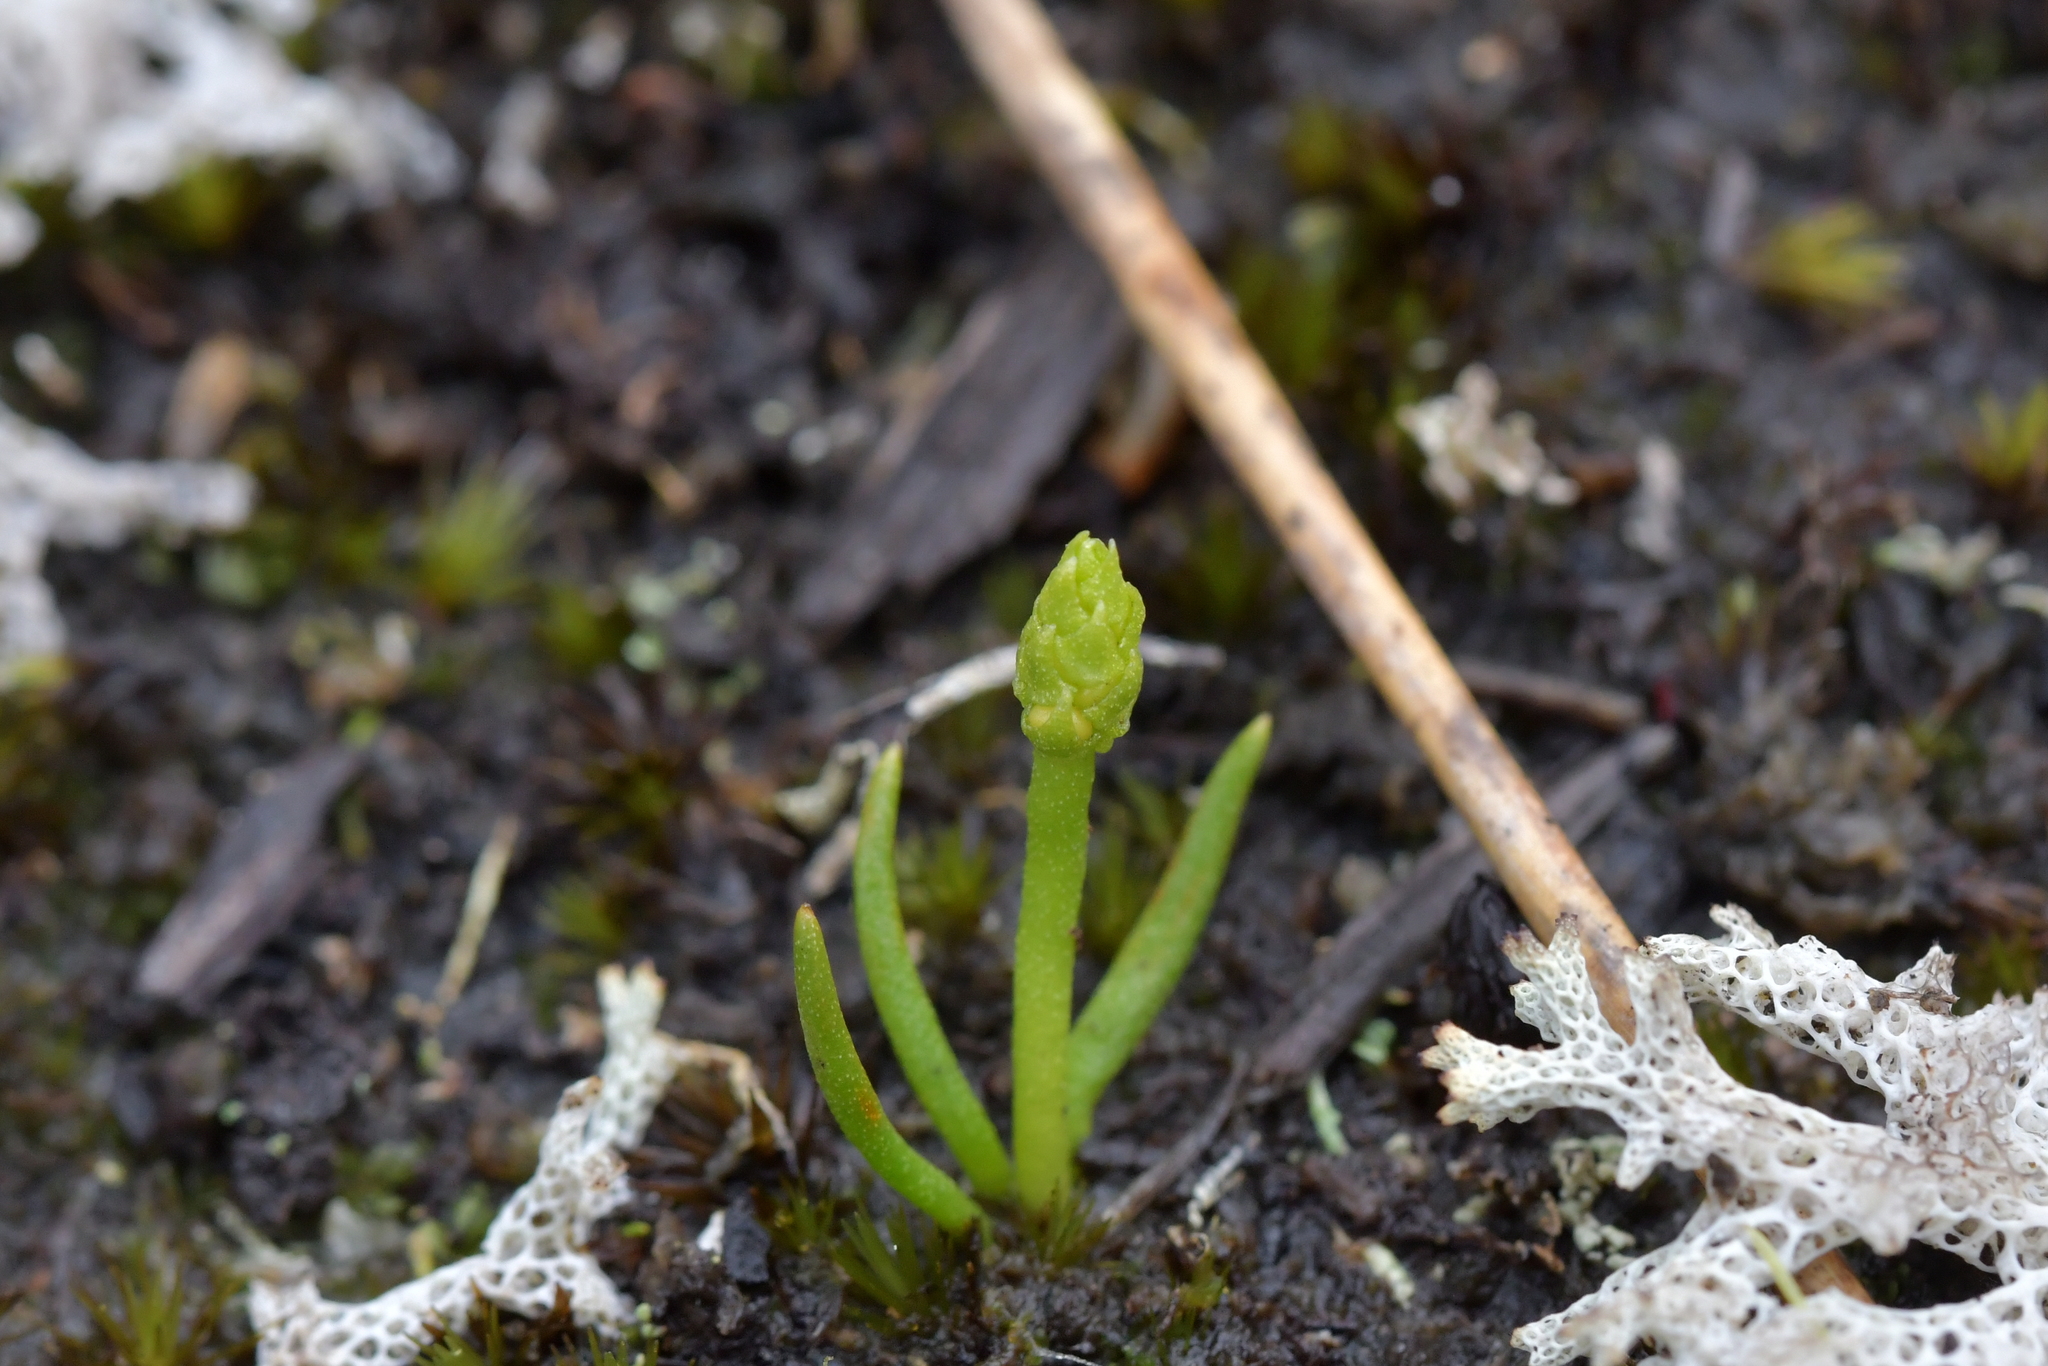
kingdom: Plantae
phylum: Tracheophyta
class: Lycopodiopsida
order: Lycopodiales
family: Lycopodiaceae
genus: Phylloglossum
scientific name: Phylloglossum drummondii
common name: Pigmy-club-moss
